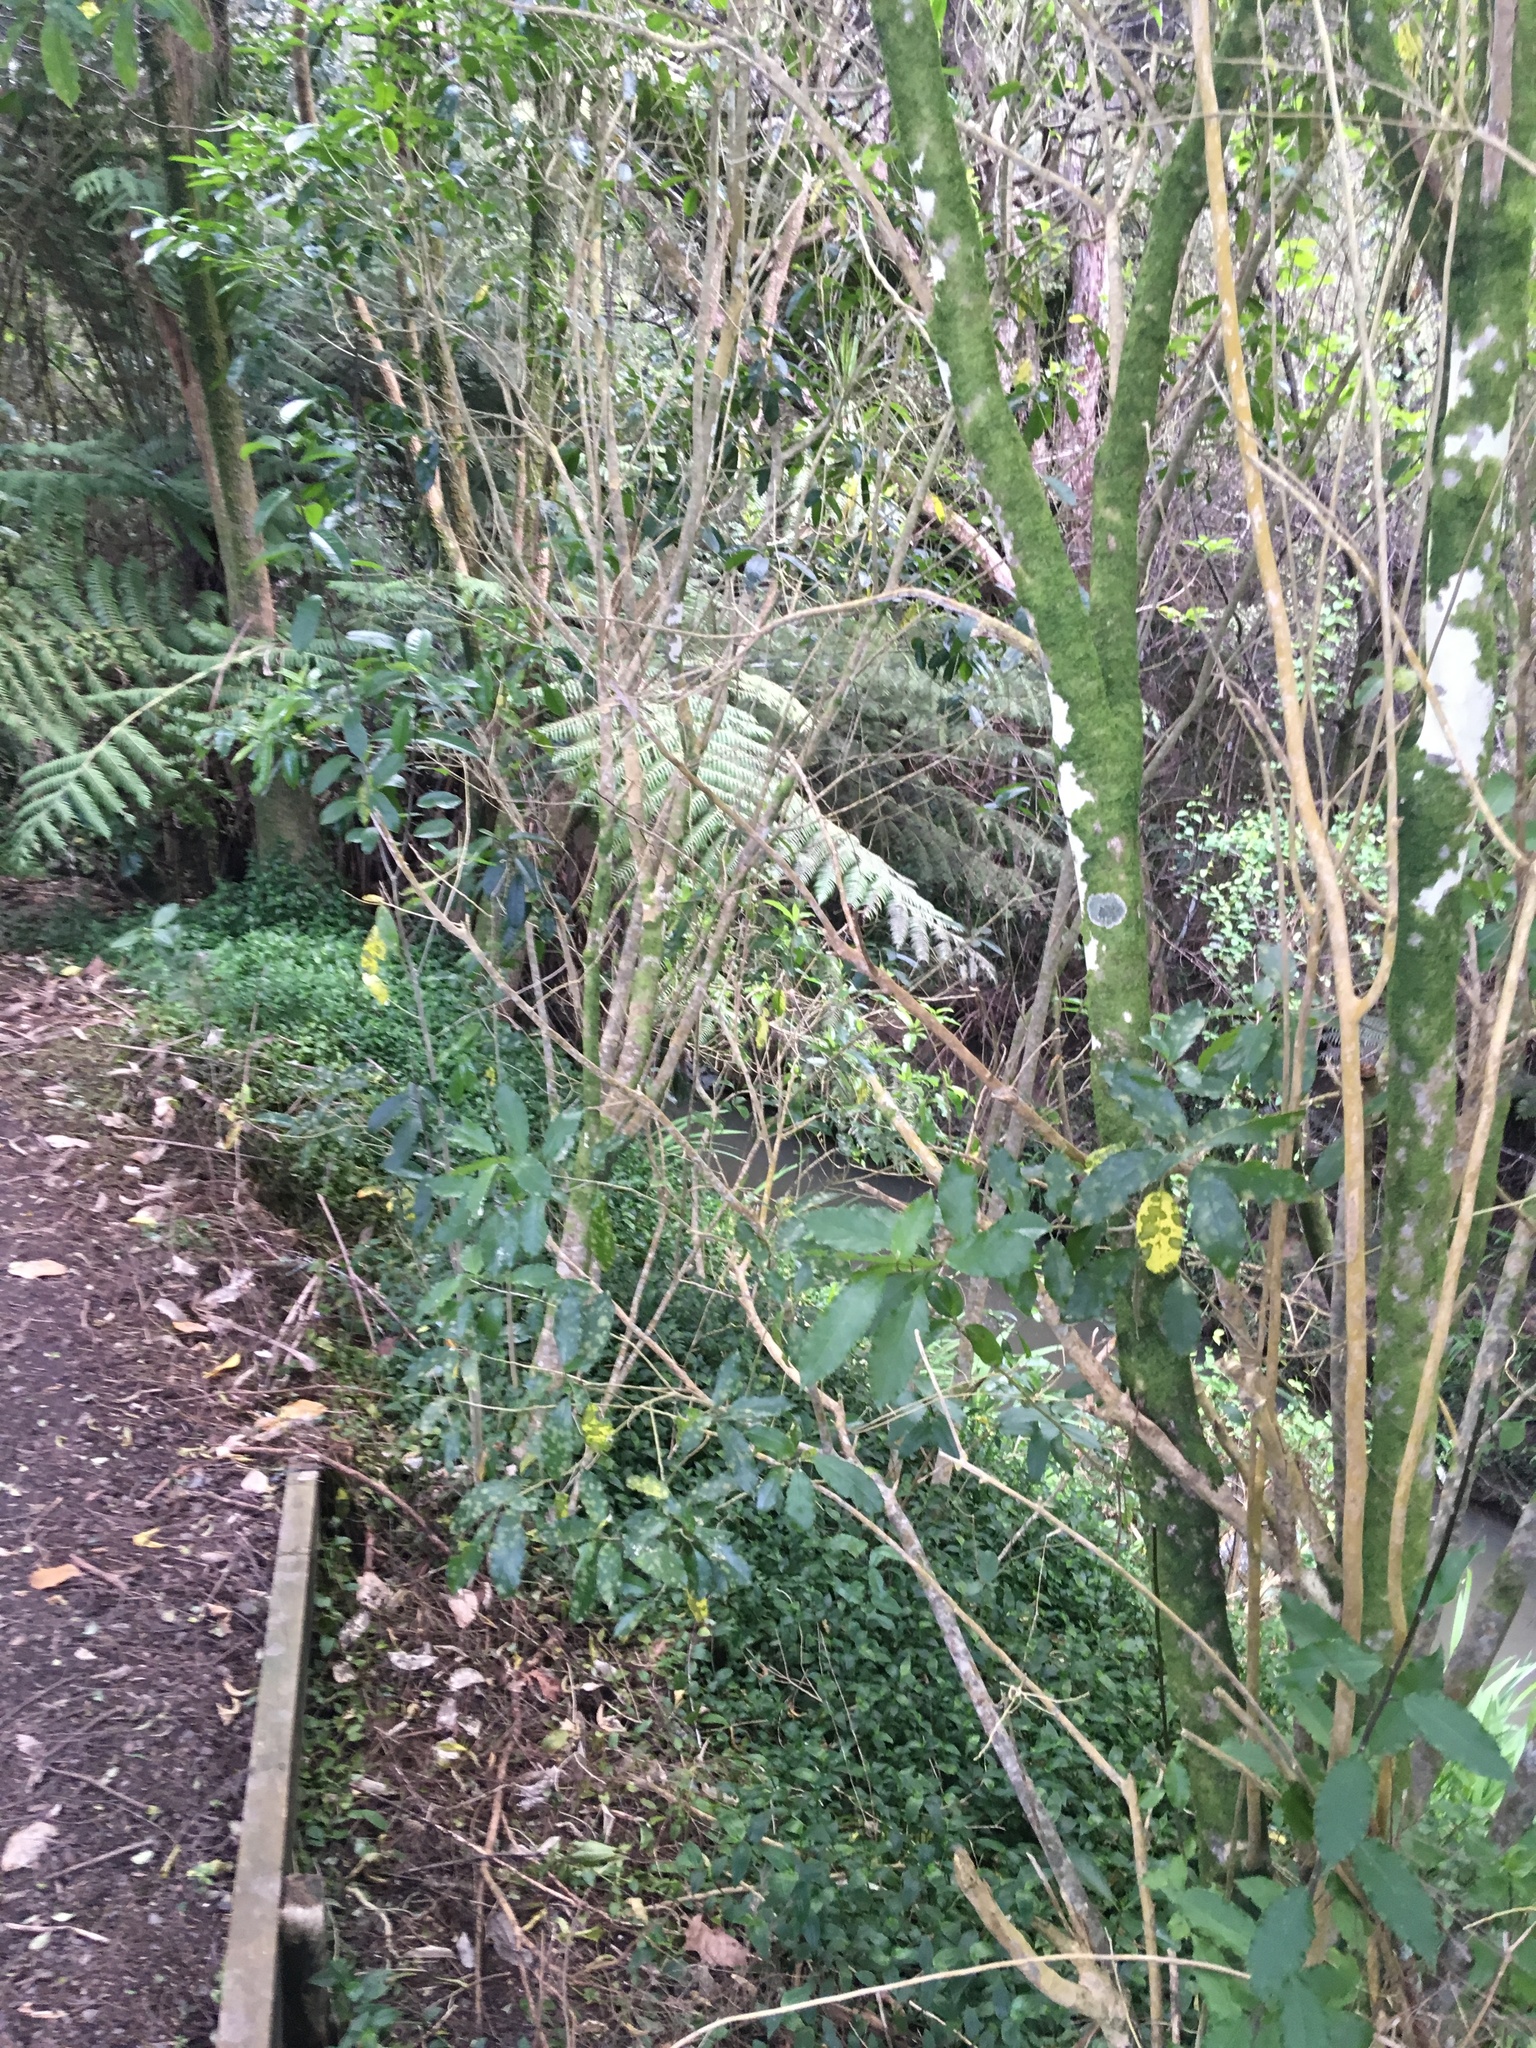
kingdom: Plantae
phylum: Tracheophyta
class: Liliopsida
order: Commelinales
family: Commelinaceae
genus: Tradescantia
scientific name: Tradescantia fluminensis
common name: Wandering-jew
